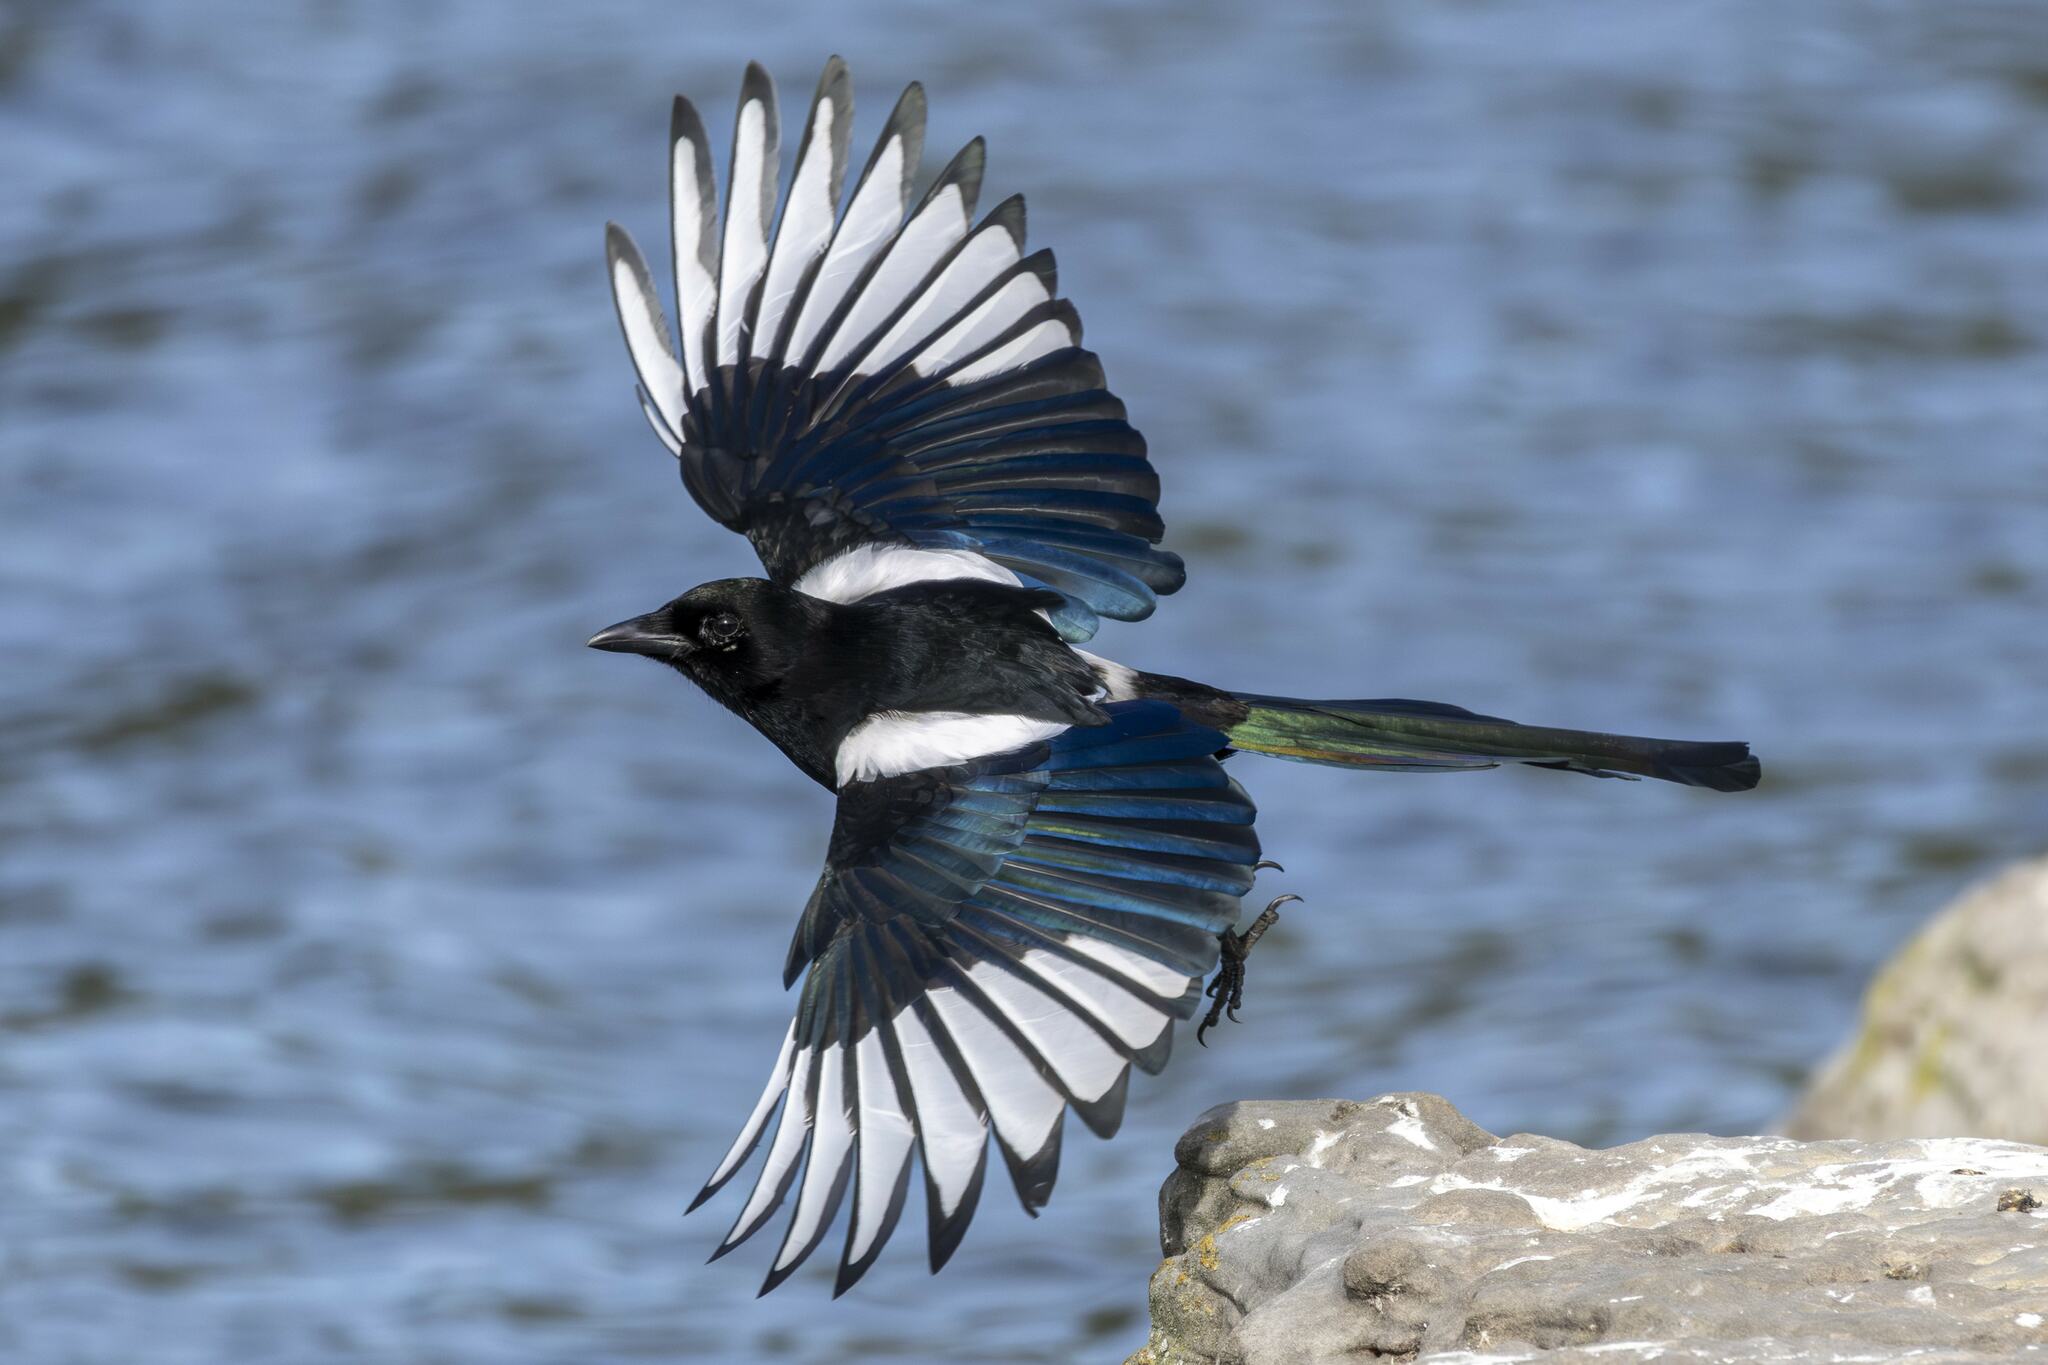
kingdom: Animalia
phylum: Chordata
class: Aves
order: Passeriformes
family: Corvidae
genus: Pica
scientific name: Pica pica
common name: Eurasian magpie
